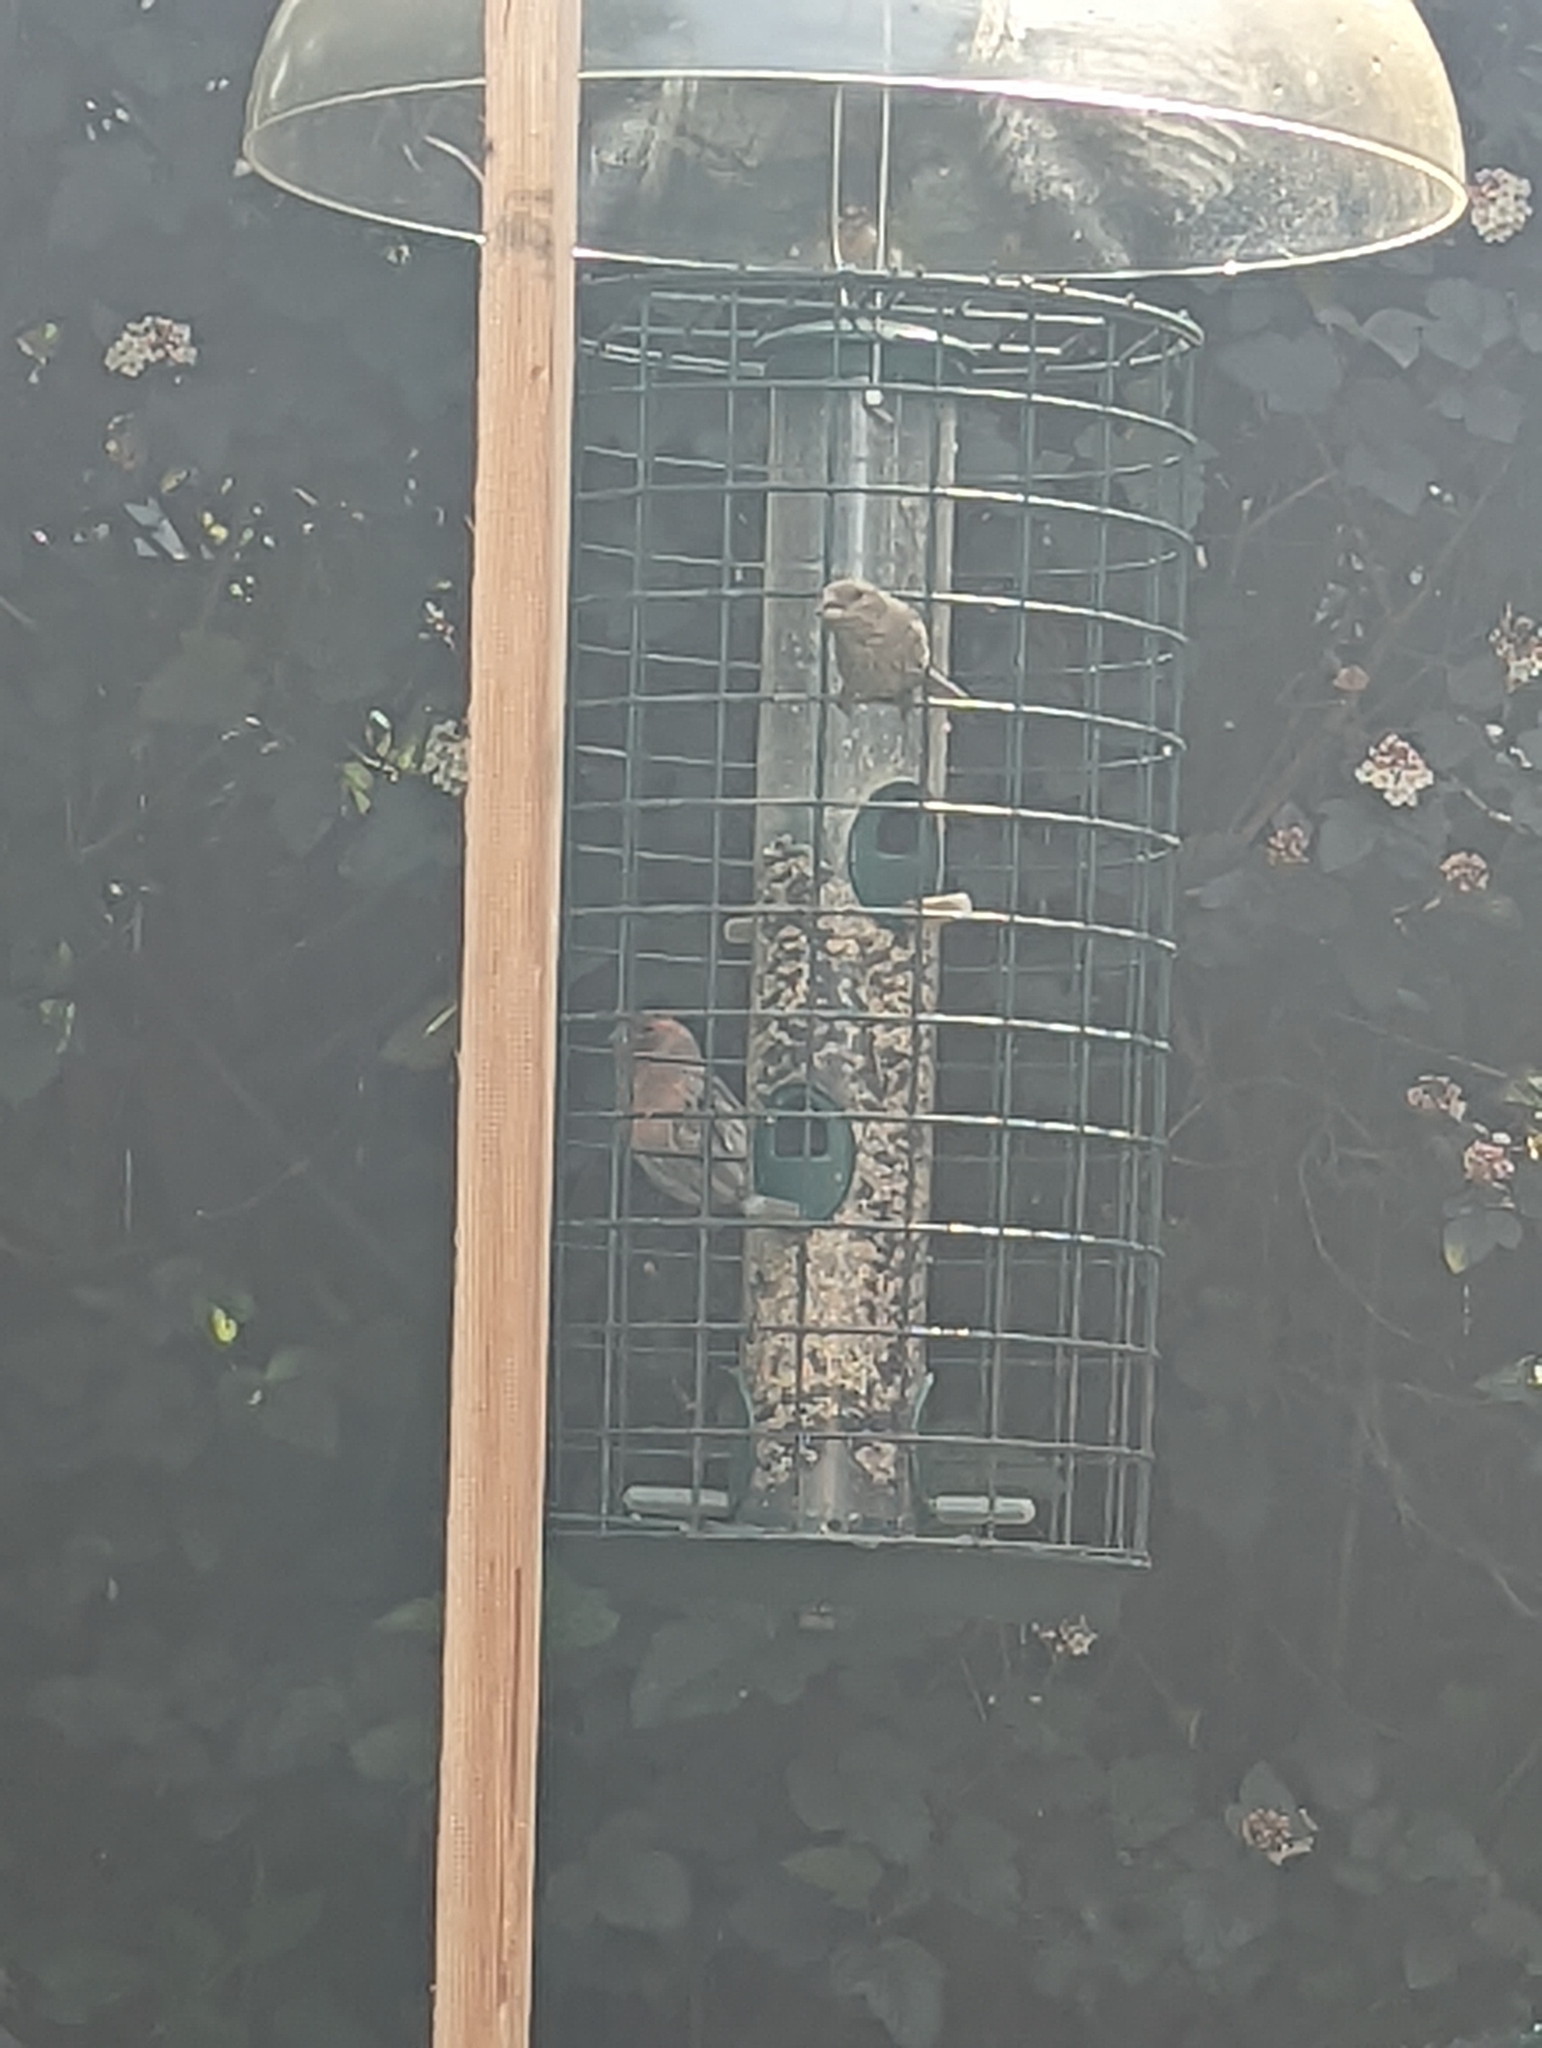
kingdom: Animalia
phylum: Chordata
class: Aves
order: Passeriformes
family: Fringillidae
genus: Haemorhous
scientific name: Haemorhous mexicanus
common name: House finch
